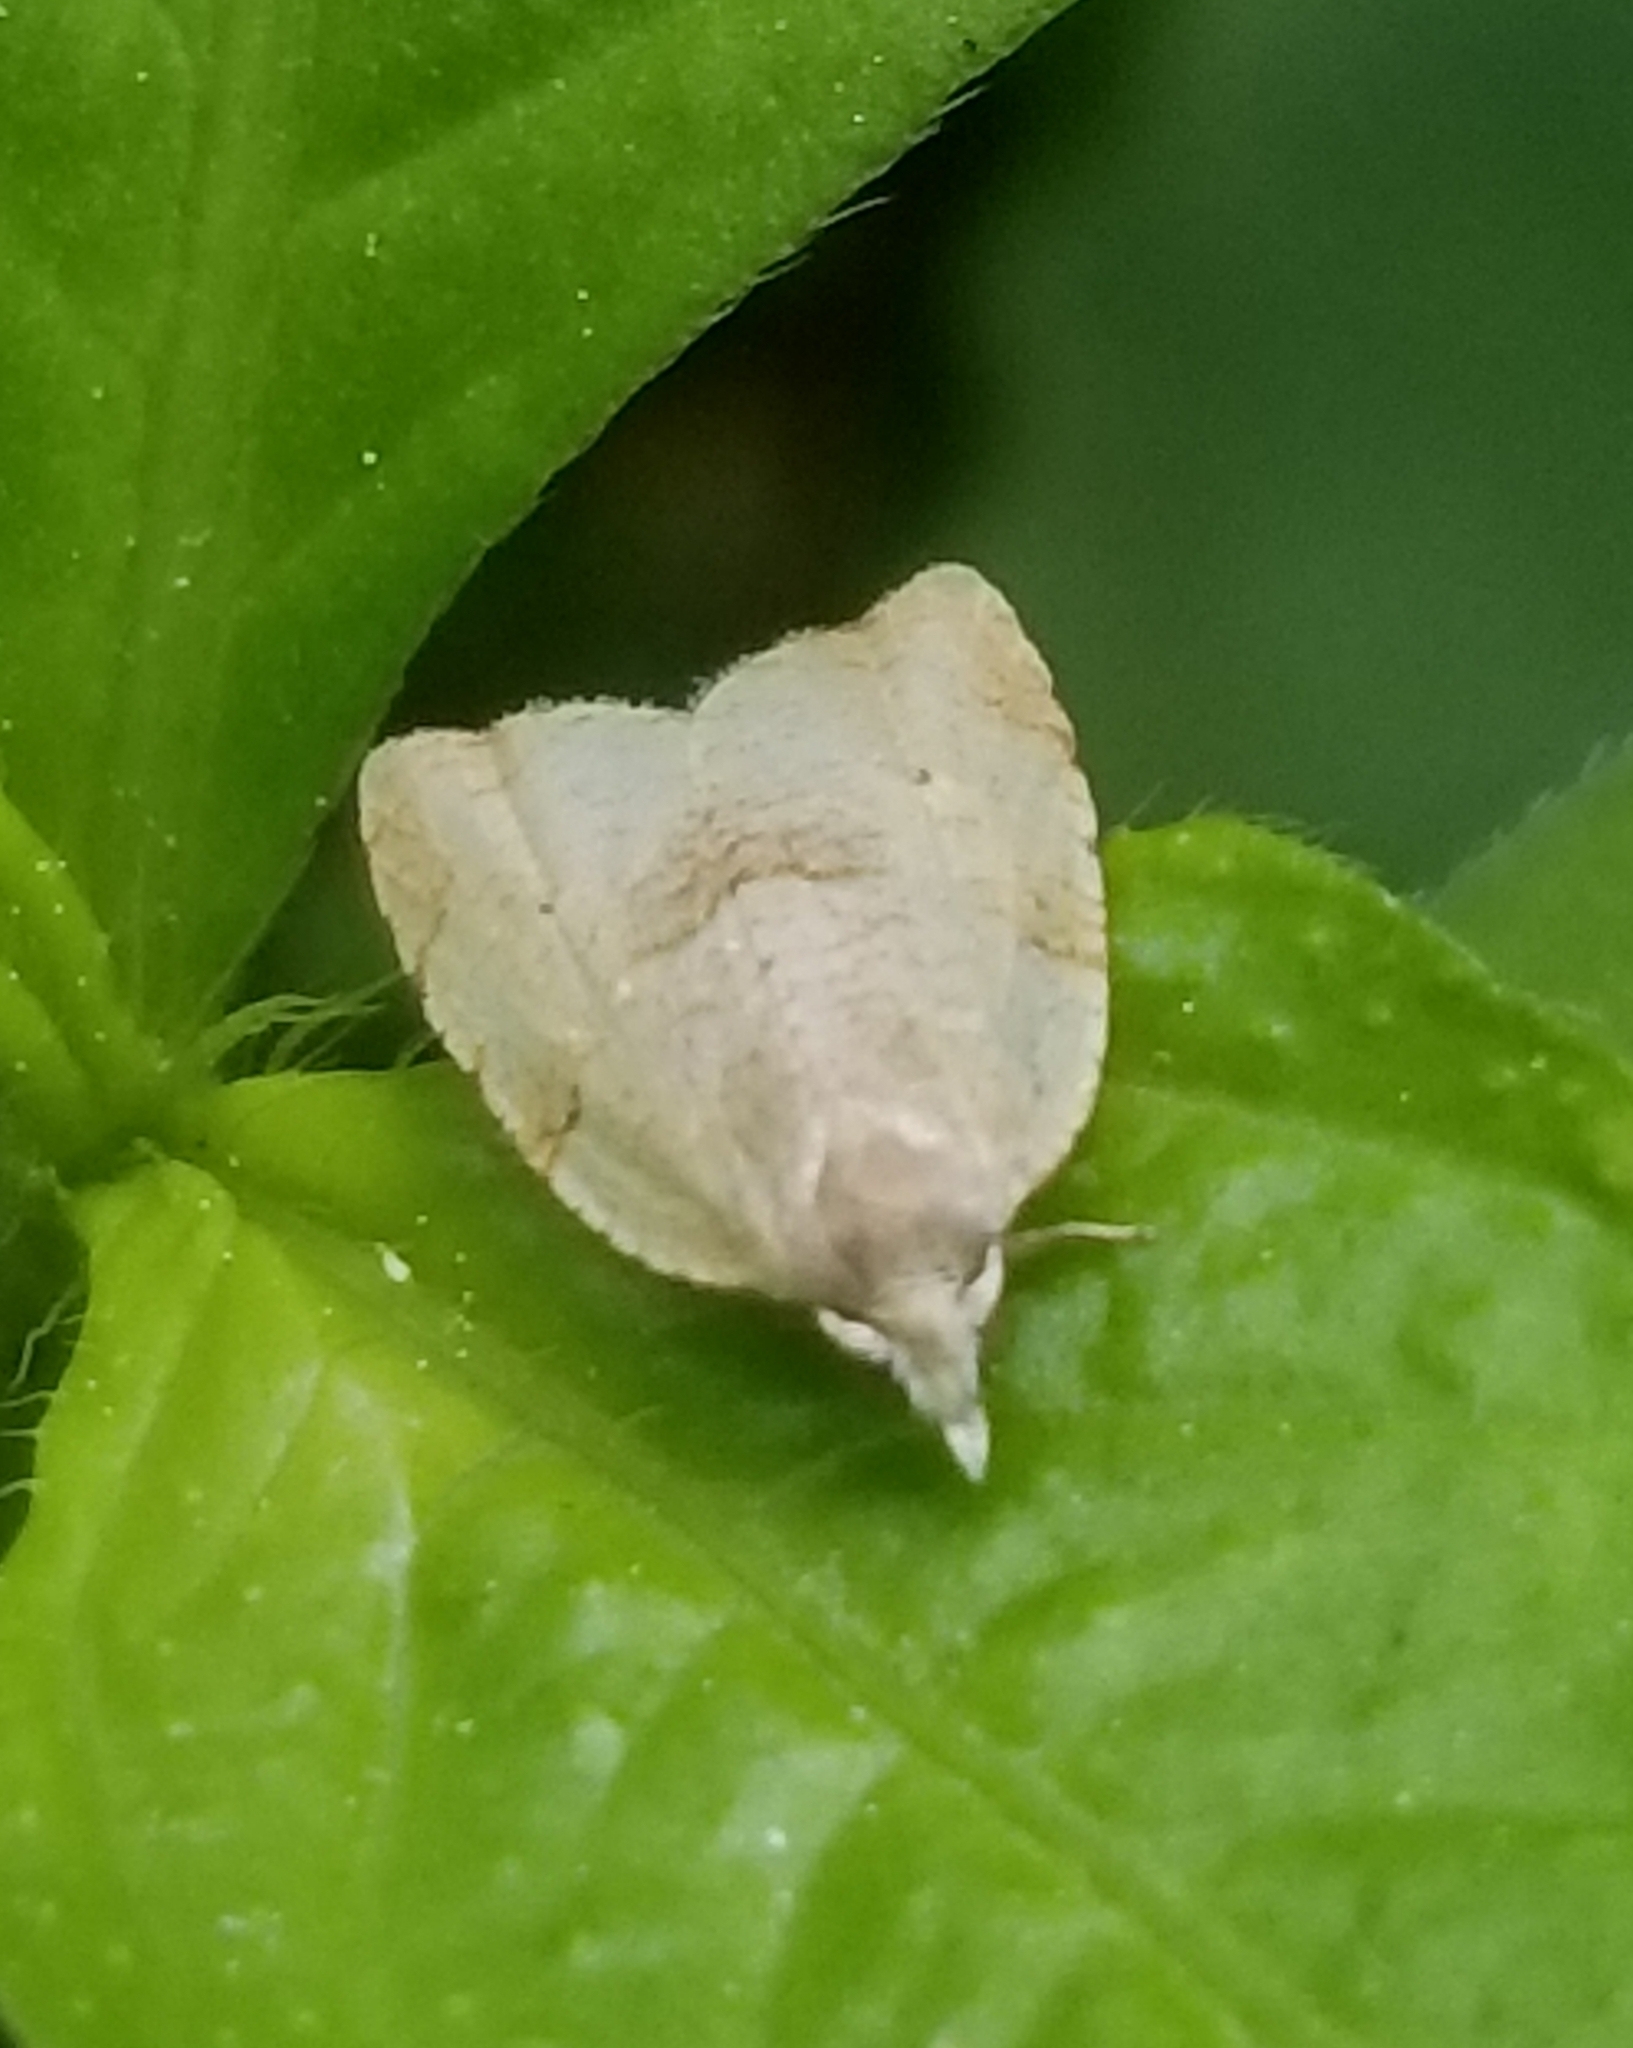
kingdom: Animalia
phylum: Arthropoda
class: Insecta
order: Lepidoptera
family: Tortricidae
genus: Coelostathma
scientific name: Coelostathma discopunctana
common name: Batman moth
